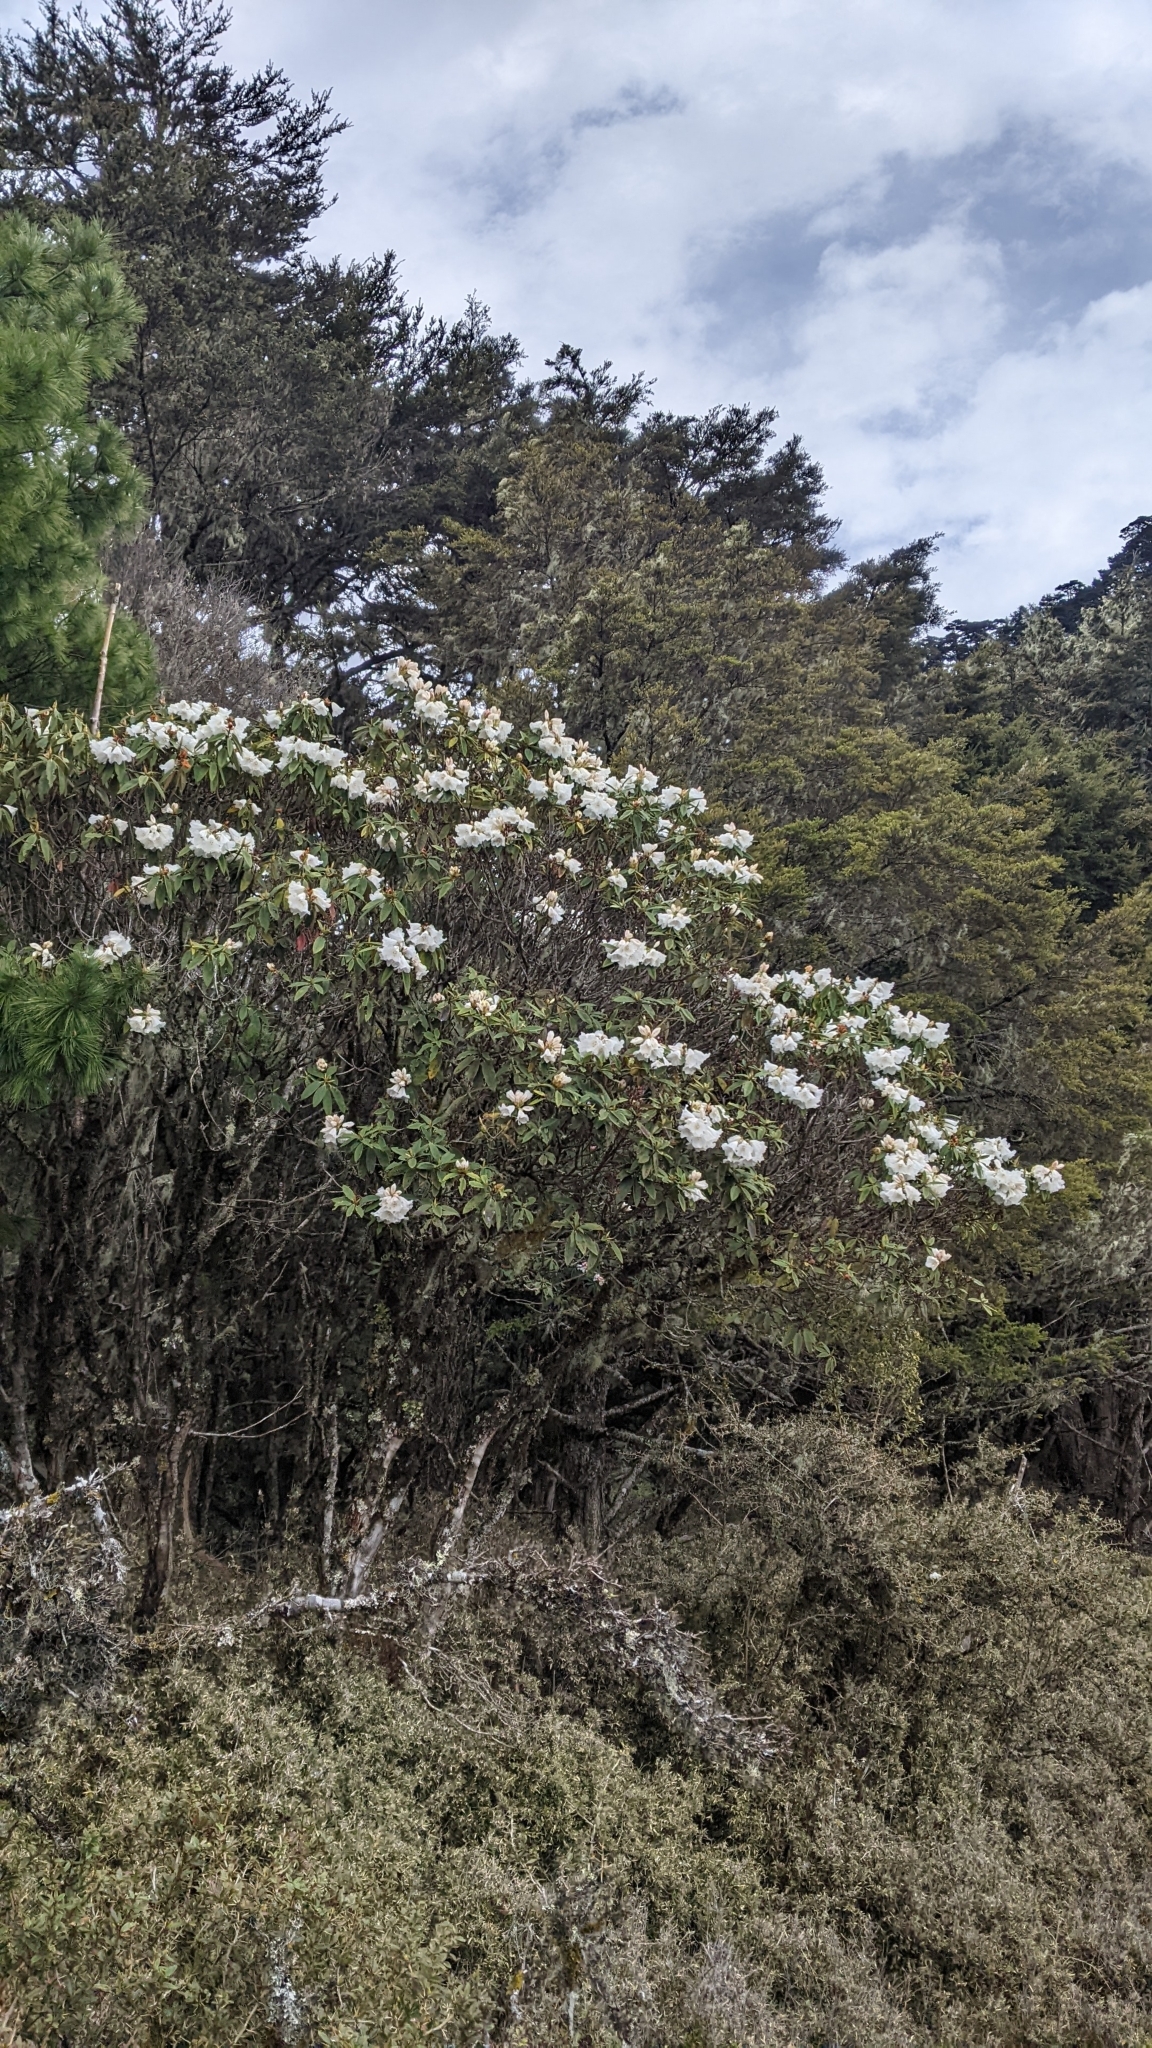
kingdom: Plantae
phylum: Tracheophyta
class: Magnoliopsida
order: Ericales
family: Ericaceae
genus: Rhododendron
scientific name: Rhododendron pseudochrysanthum
